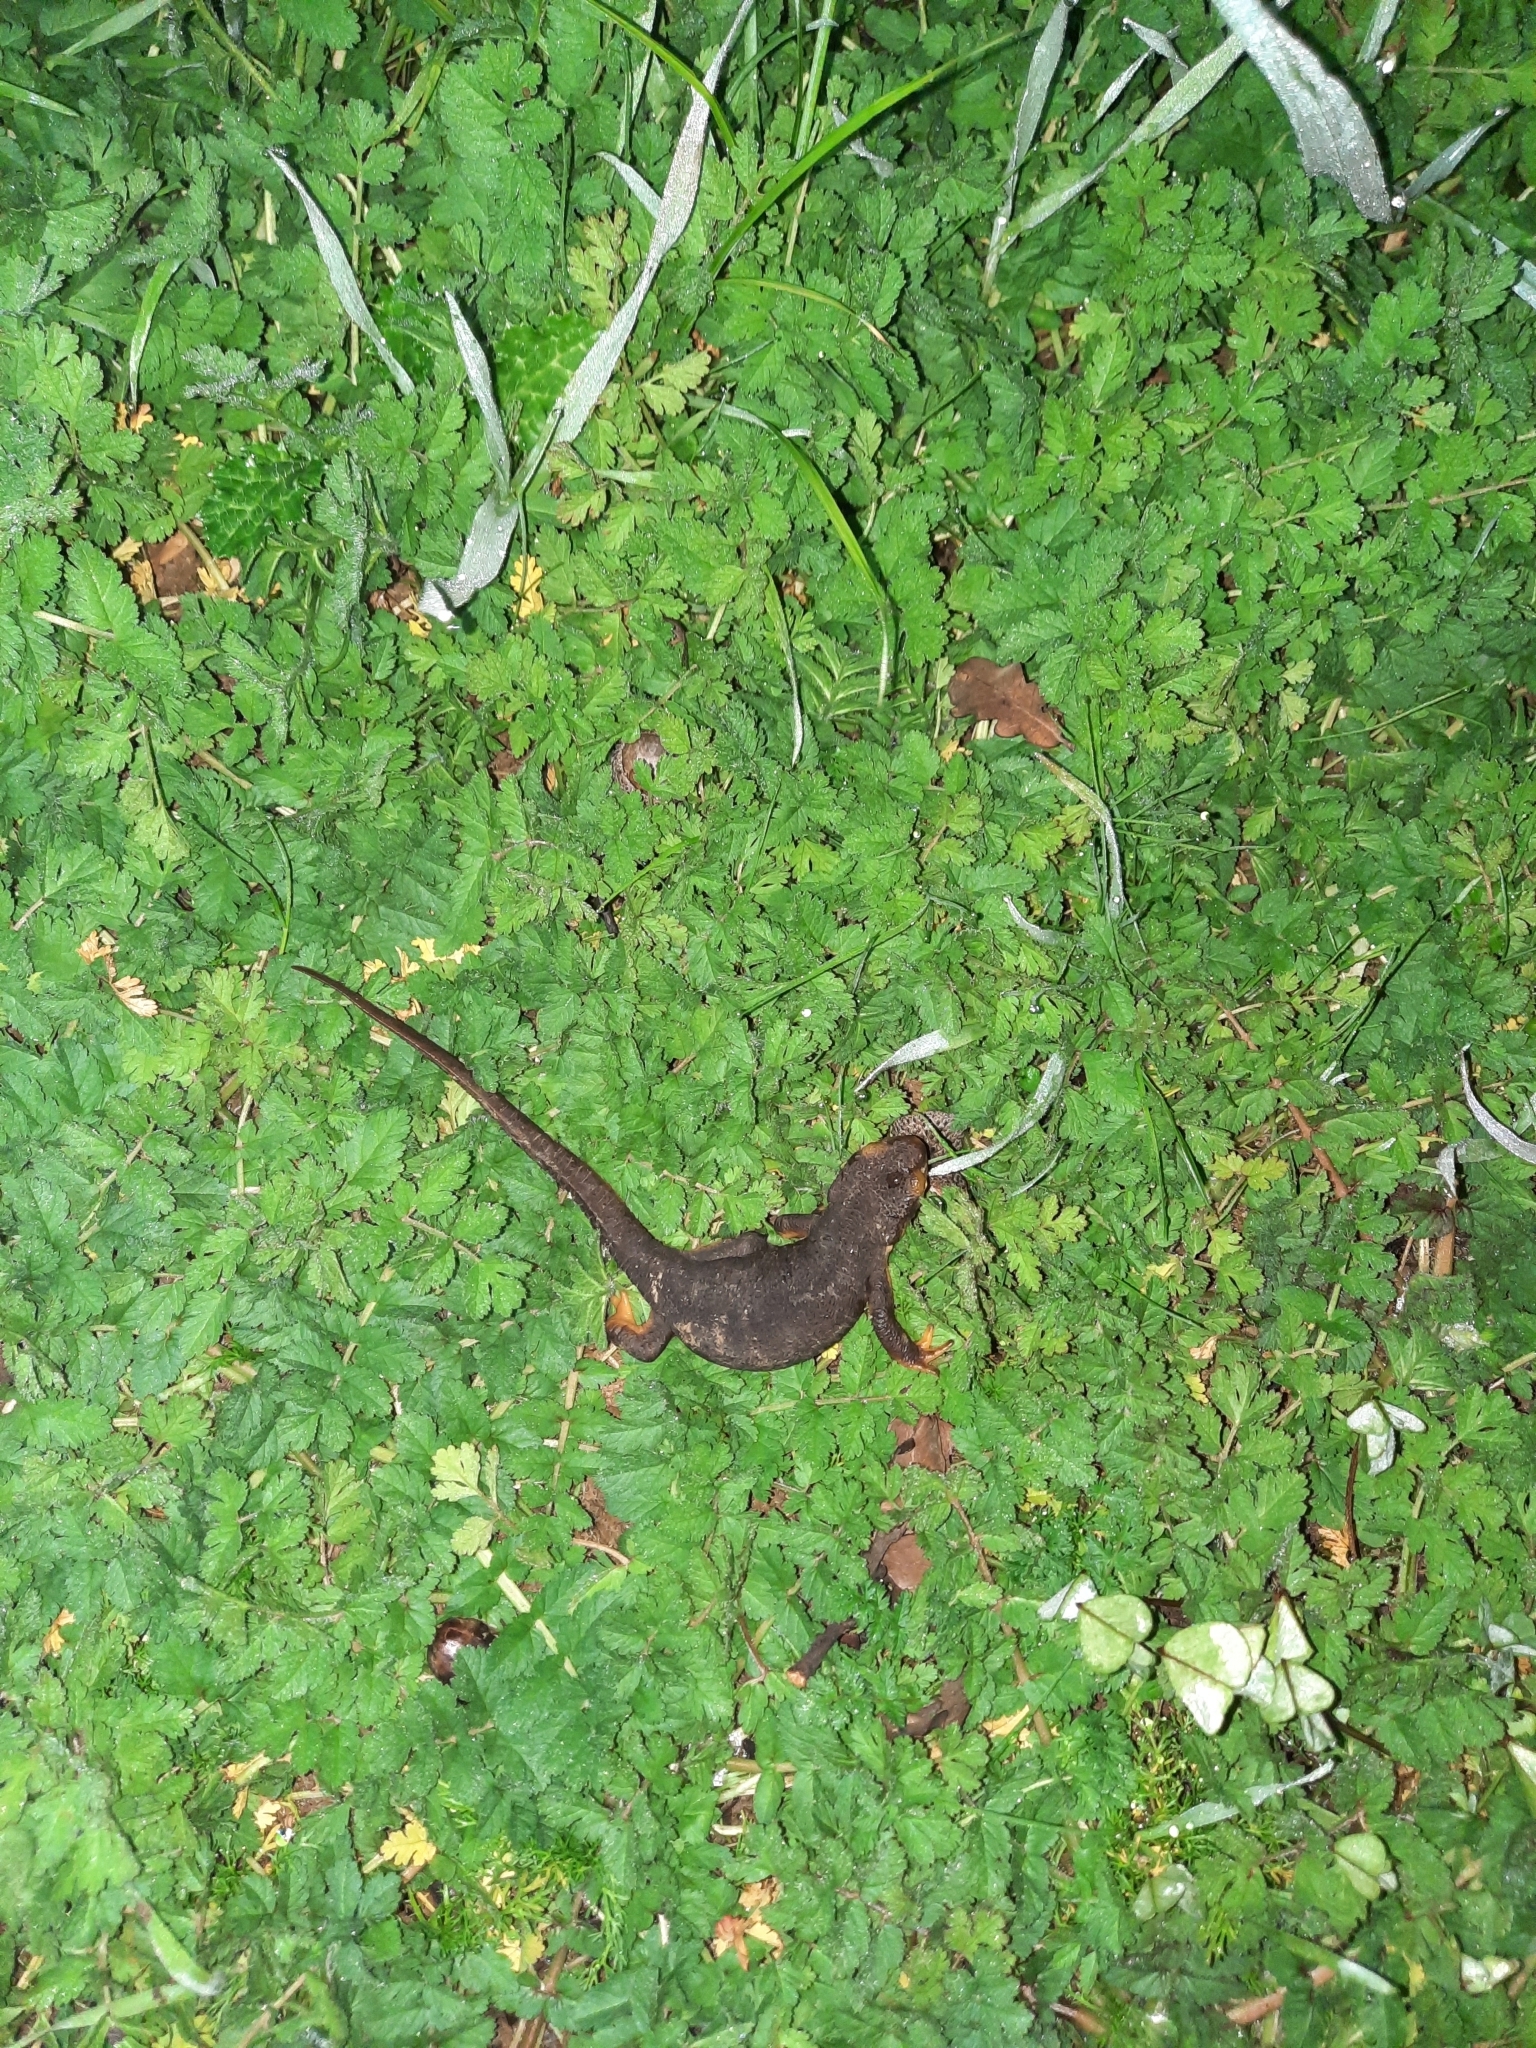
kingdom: Animalia
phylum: Chordata
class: Amphibia
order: Caudata
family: Salamandridae
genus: Taricha
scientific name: Taricha torosa
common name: California newt
